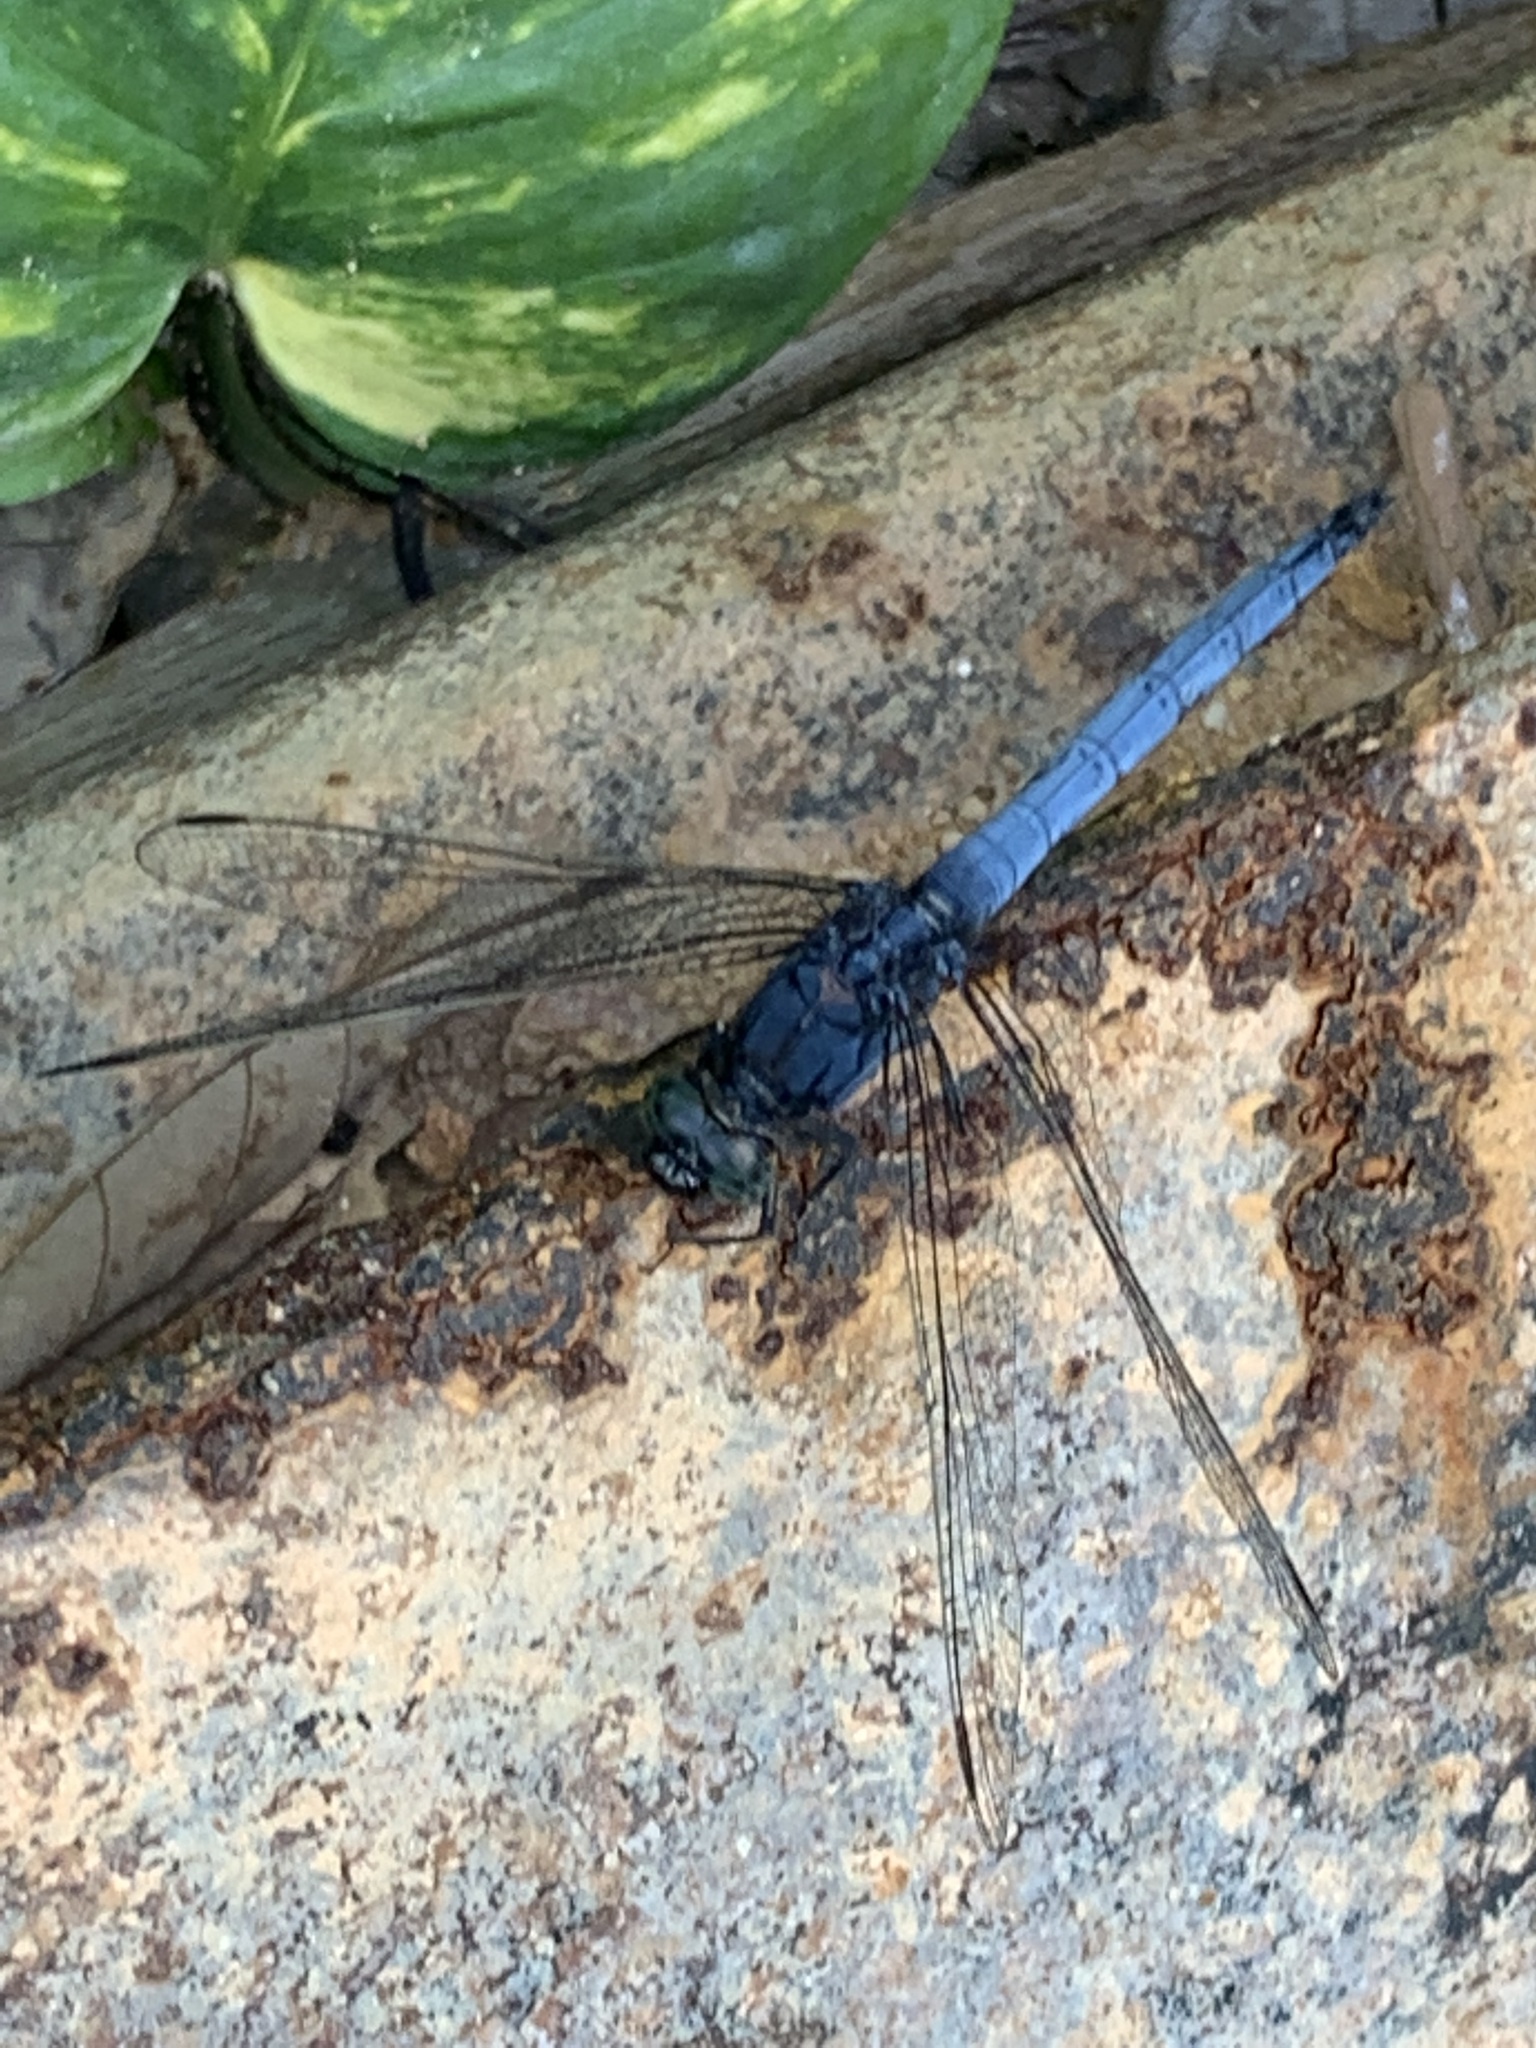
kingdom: Animalia
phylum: Arthropoda
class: Insecta
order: Odonata
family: Libellulidae
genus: Orthetrum
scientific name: Orthetrum glaucum
